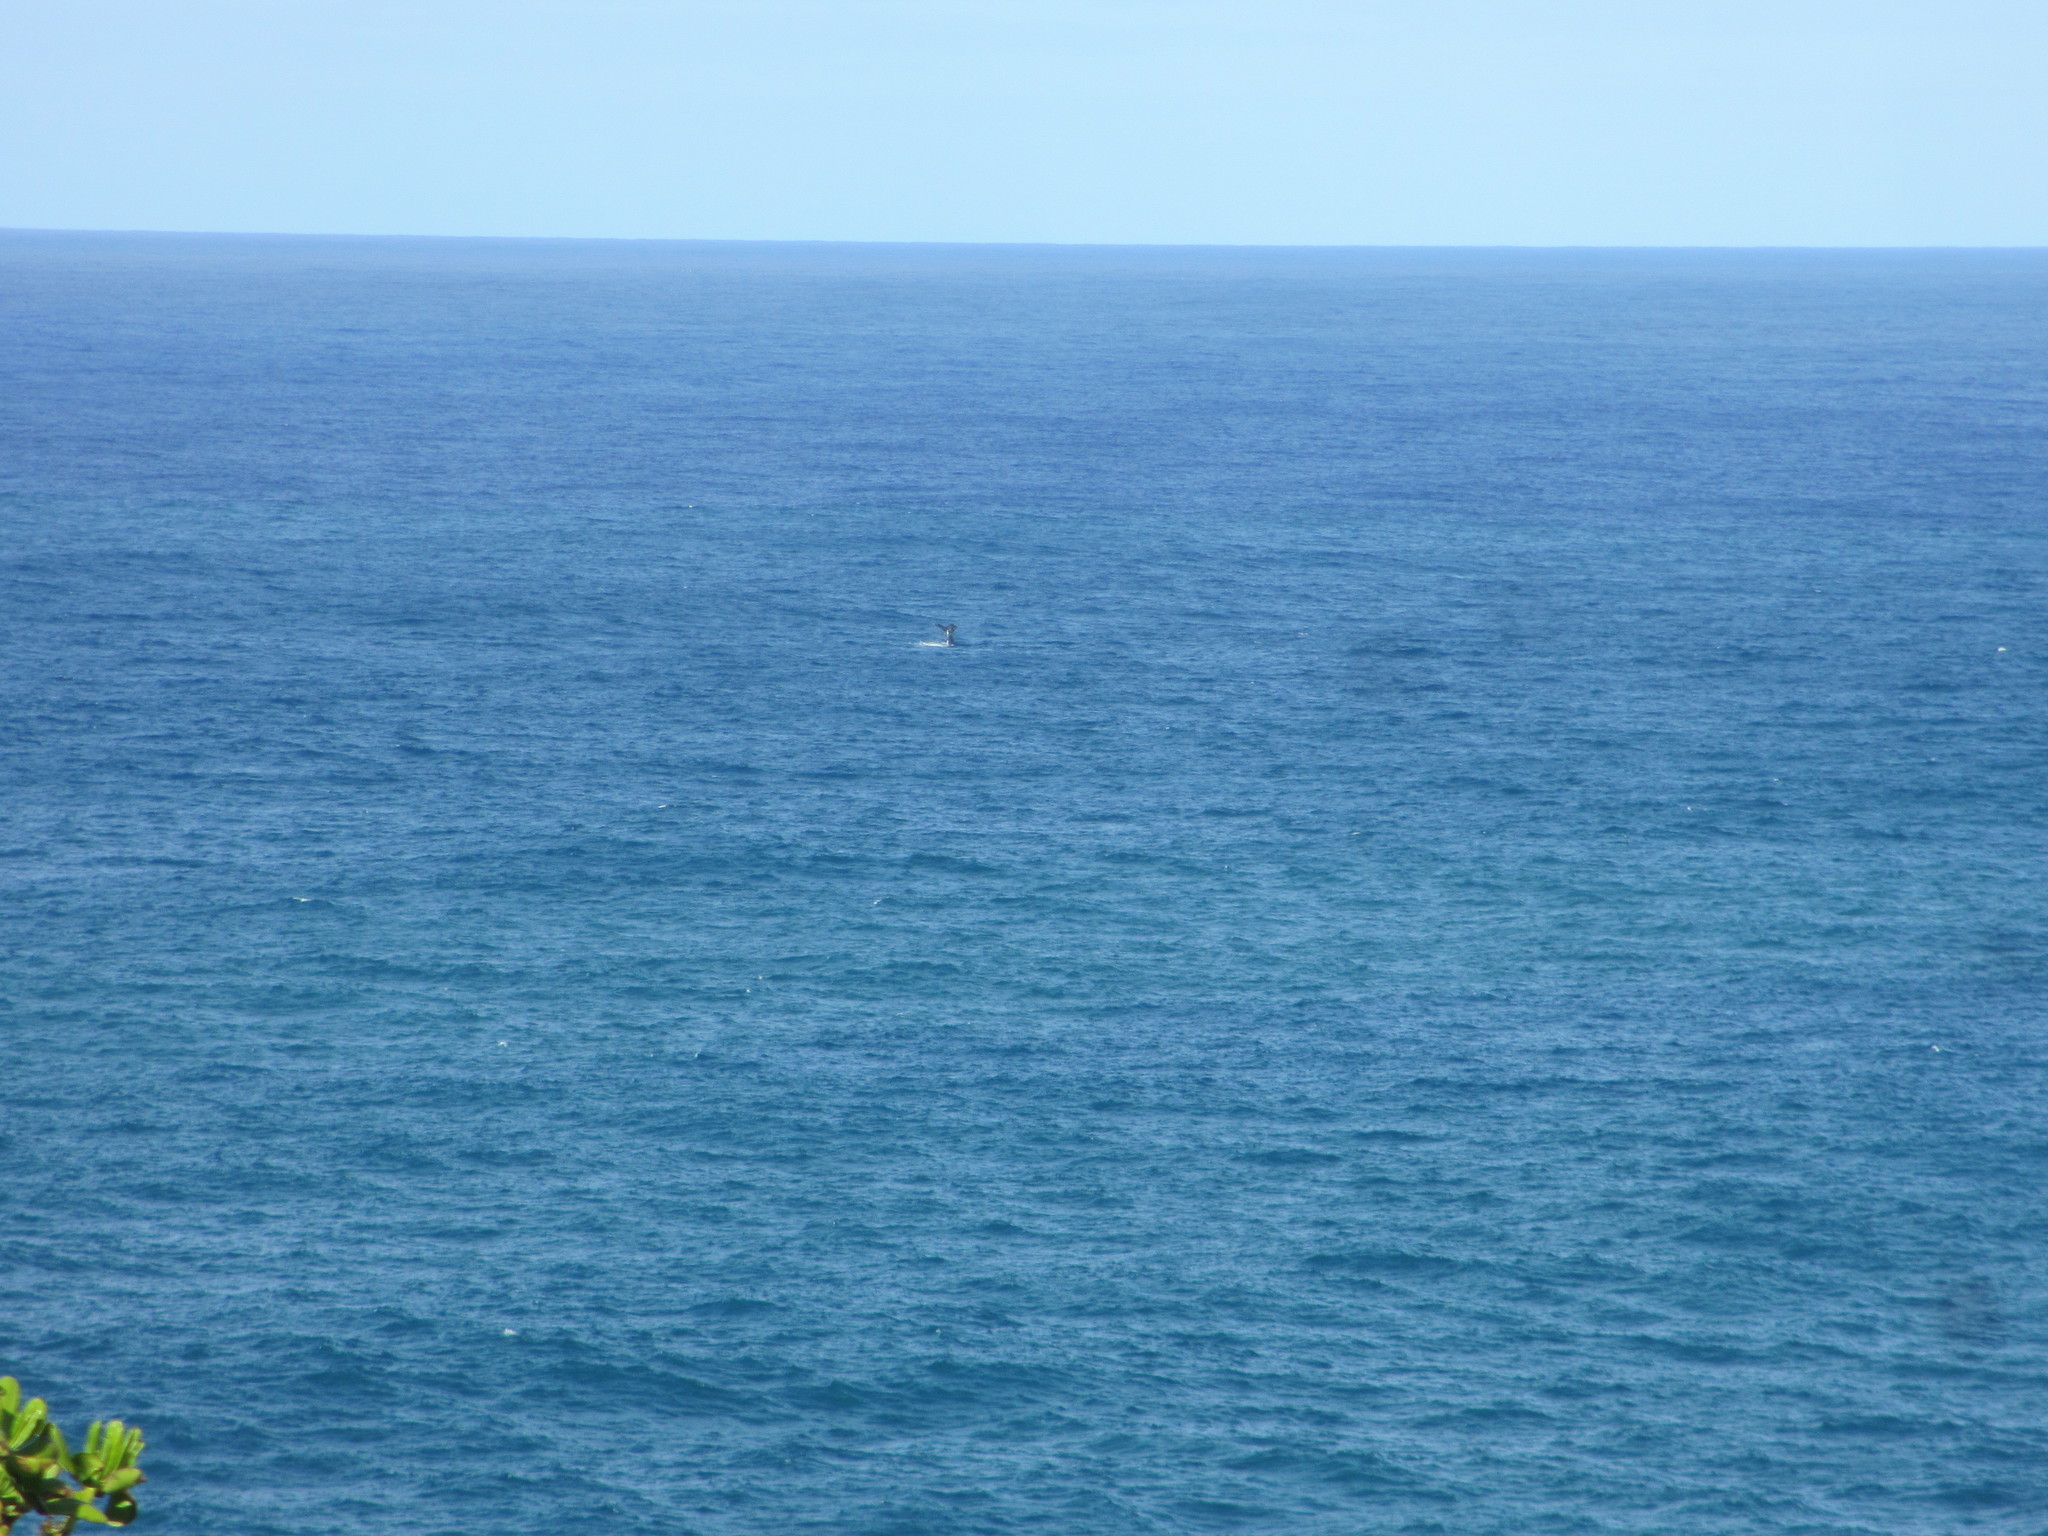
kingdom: Animalia
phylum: Chordata
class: Mammalia
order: Cetacea
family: Balaenopteridae
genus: Megaptera
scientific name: Megaptera novaeangliae
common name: Humpback whale
